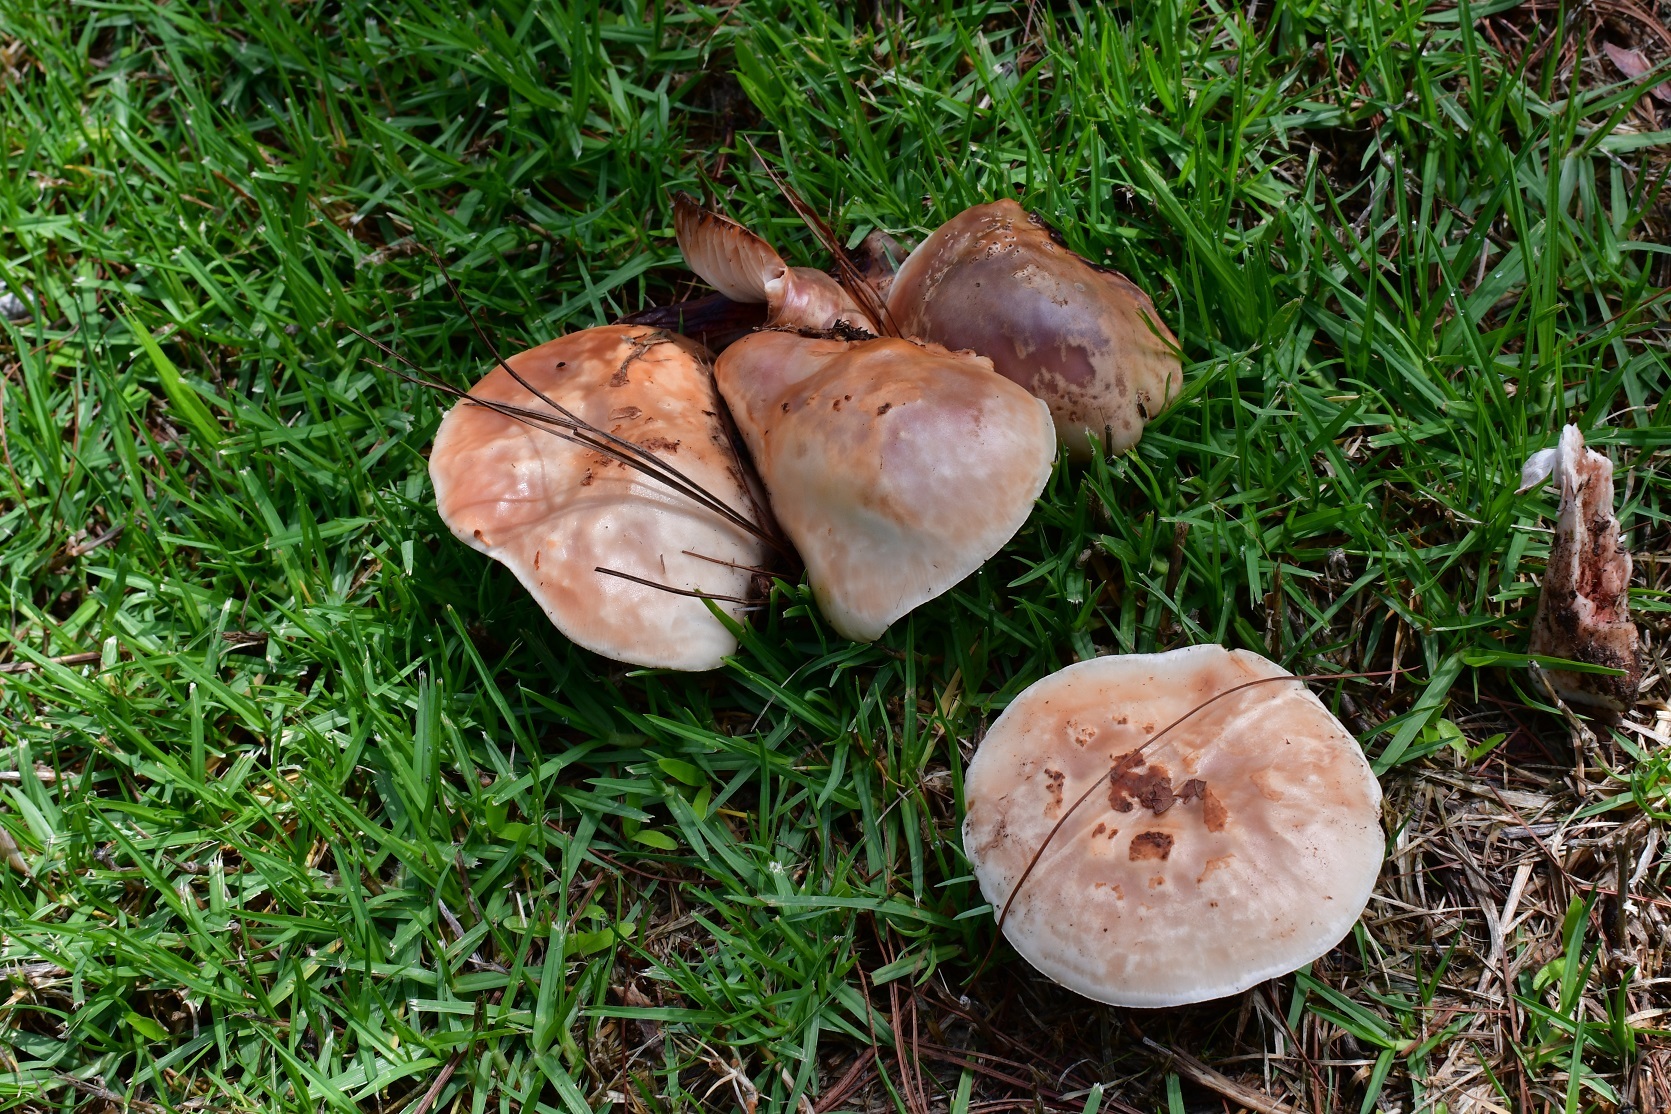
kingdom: Fungi
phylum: Basidiomycota
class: Agaricomycetes
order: Agaricales
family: Amanitaceae
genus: Amanita
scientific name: Amanita
